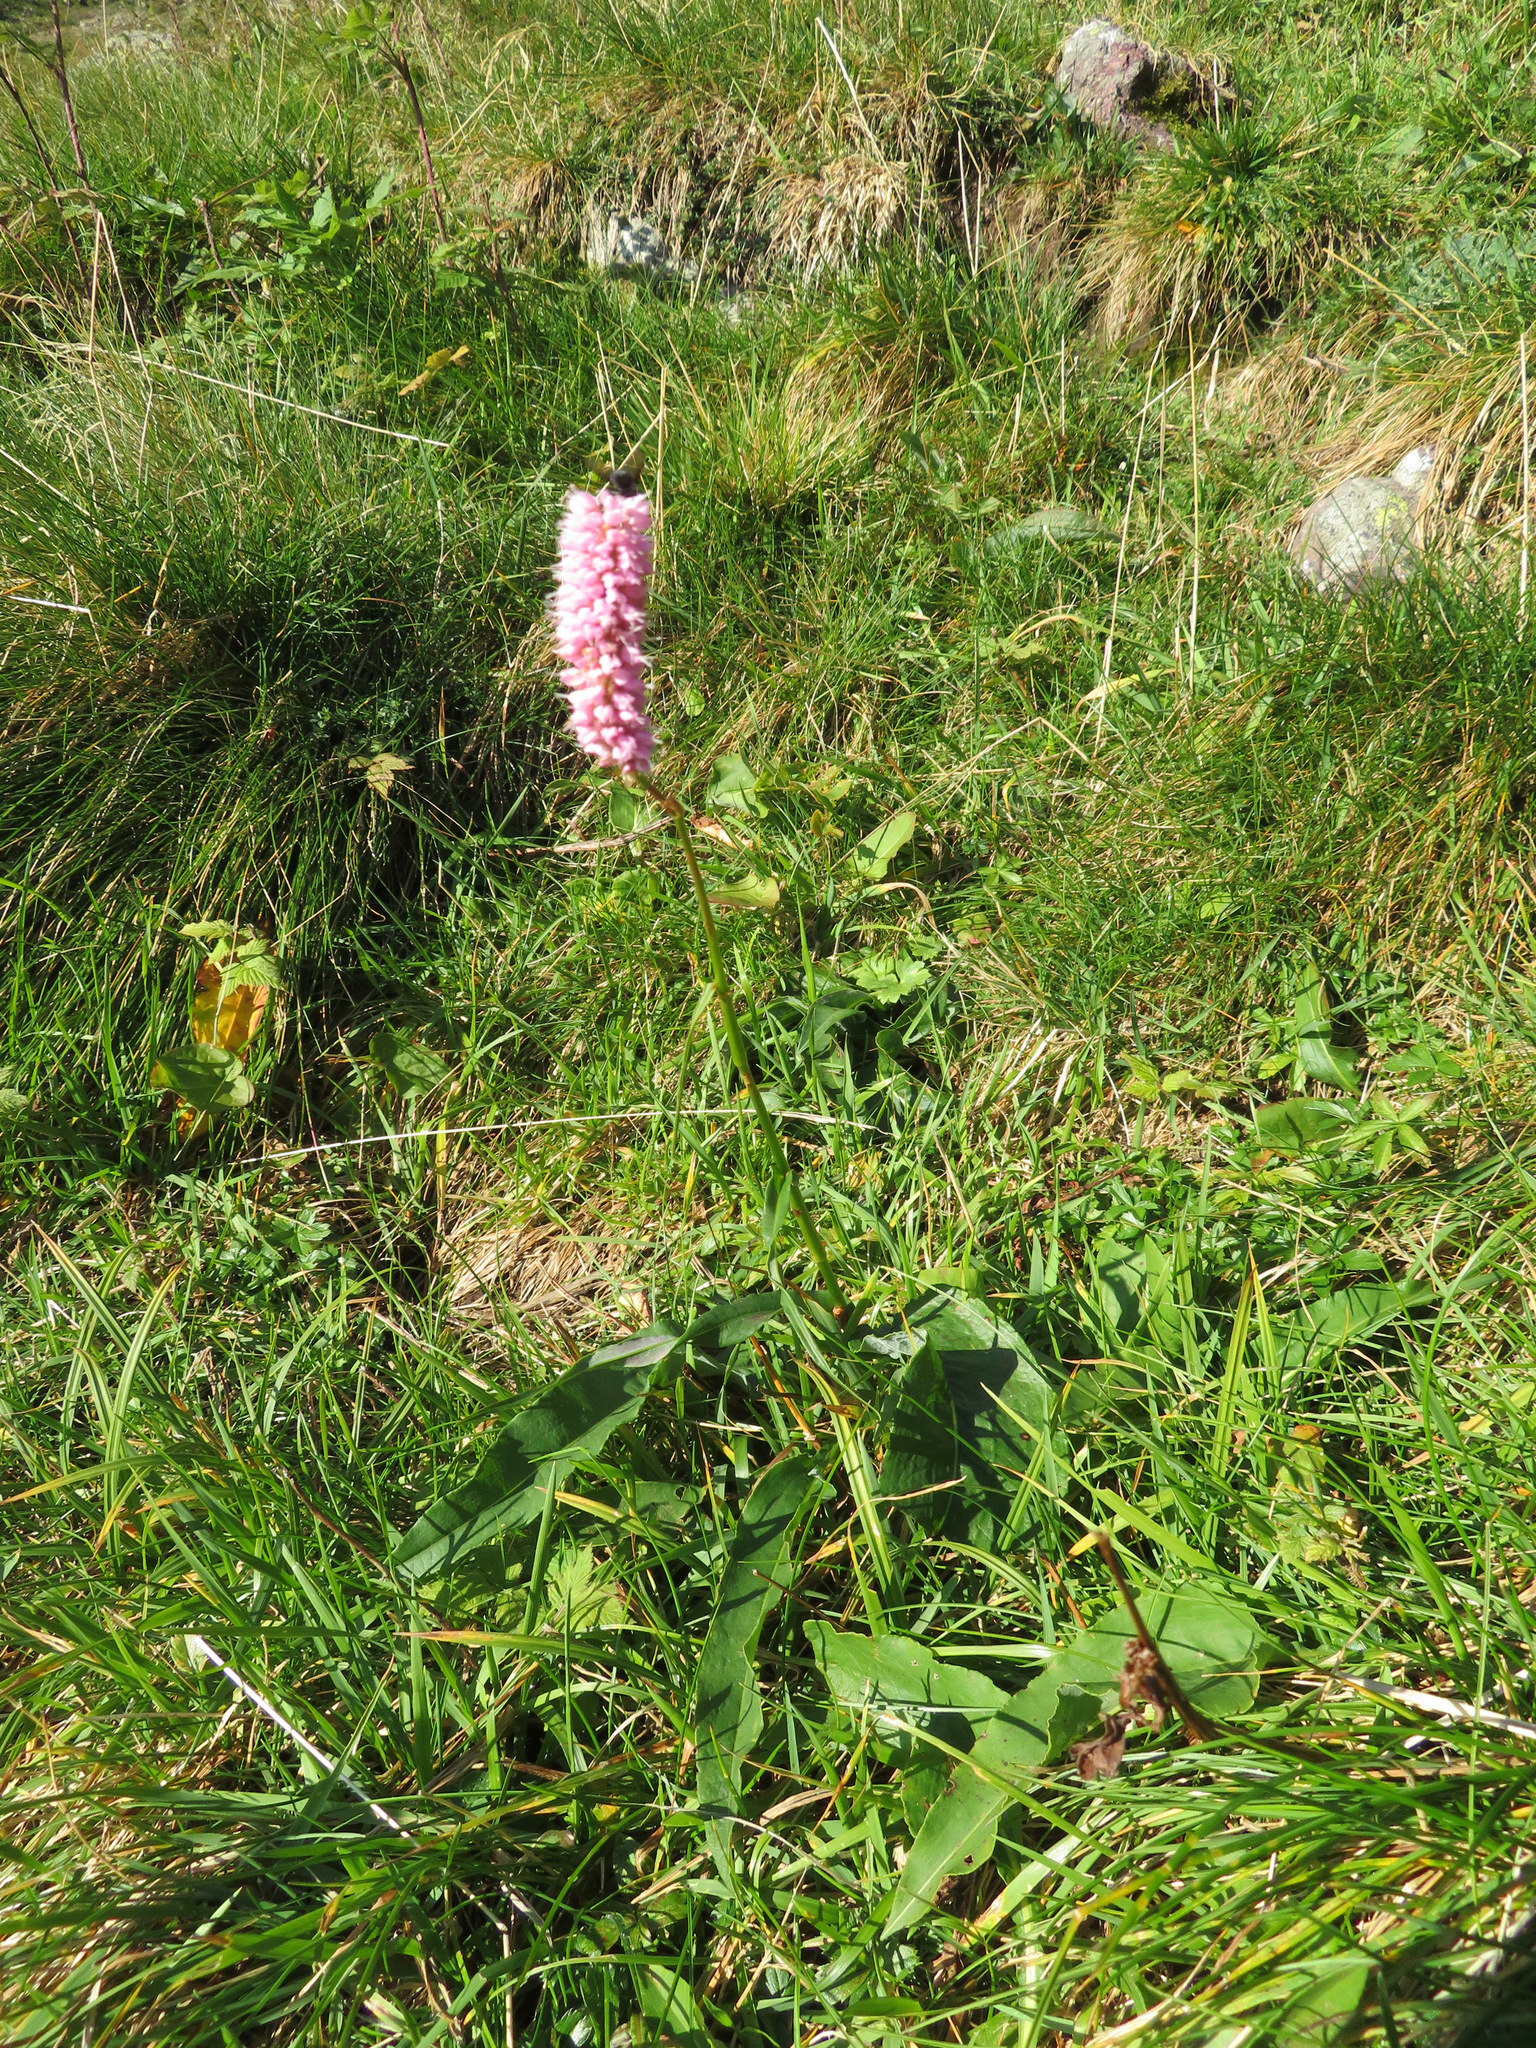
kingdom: Plantae
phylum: Tracheophyta
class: Magnoliopsida
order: Caryophyllales
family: Polygonaceae
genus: Bistorta
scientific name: Bistorta officinalis
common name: Common bistort
